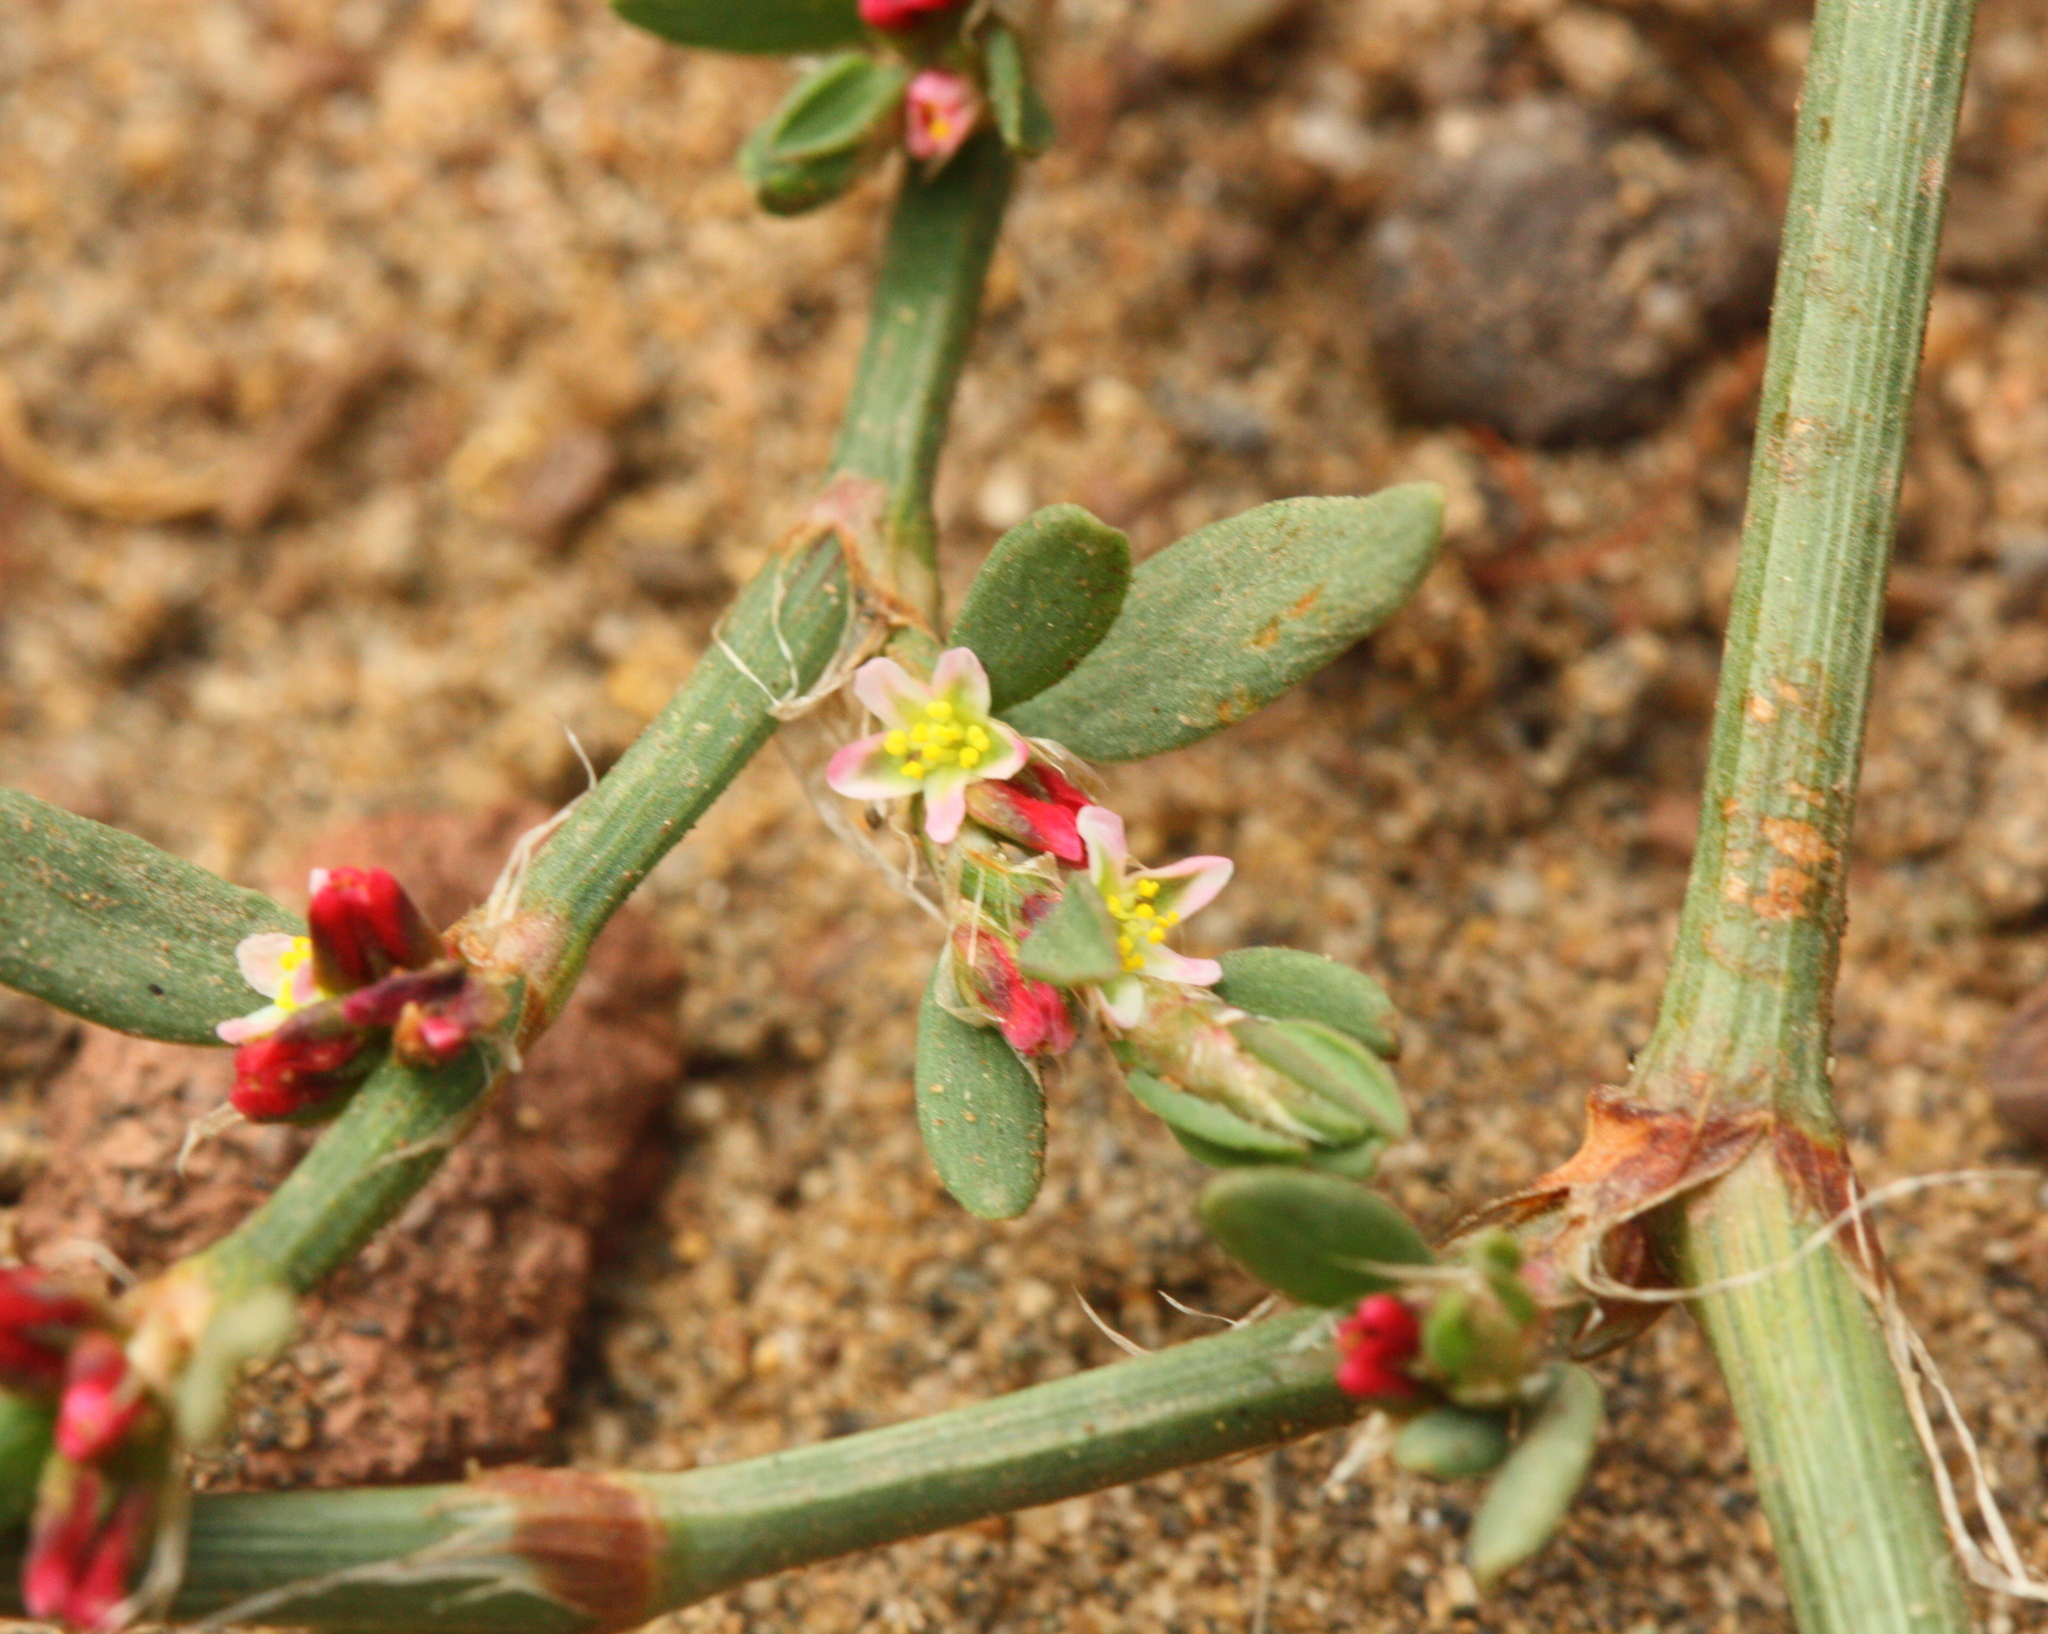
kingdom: Plantae
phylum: Tracheophyta
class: Magnoliopsida
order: Caryophyllales
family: Polygonaceae
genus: Polygonum
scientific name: Polygonum aviculare
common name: Prostrate knotweed
